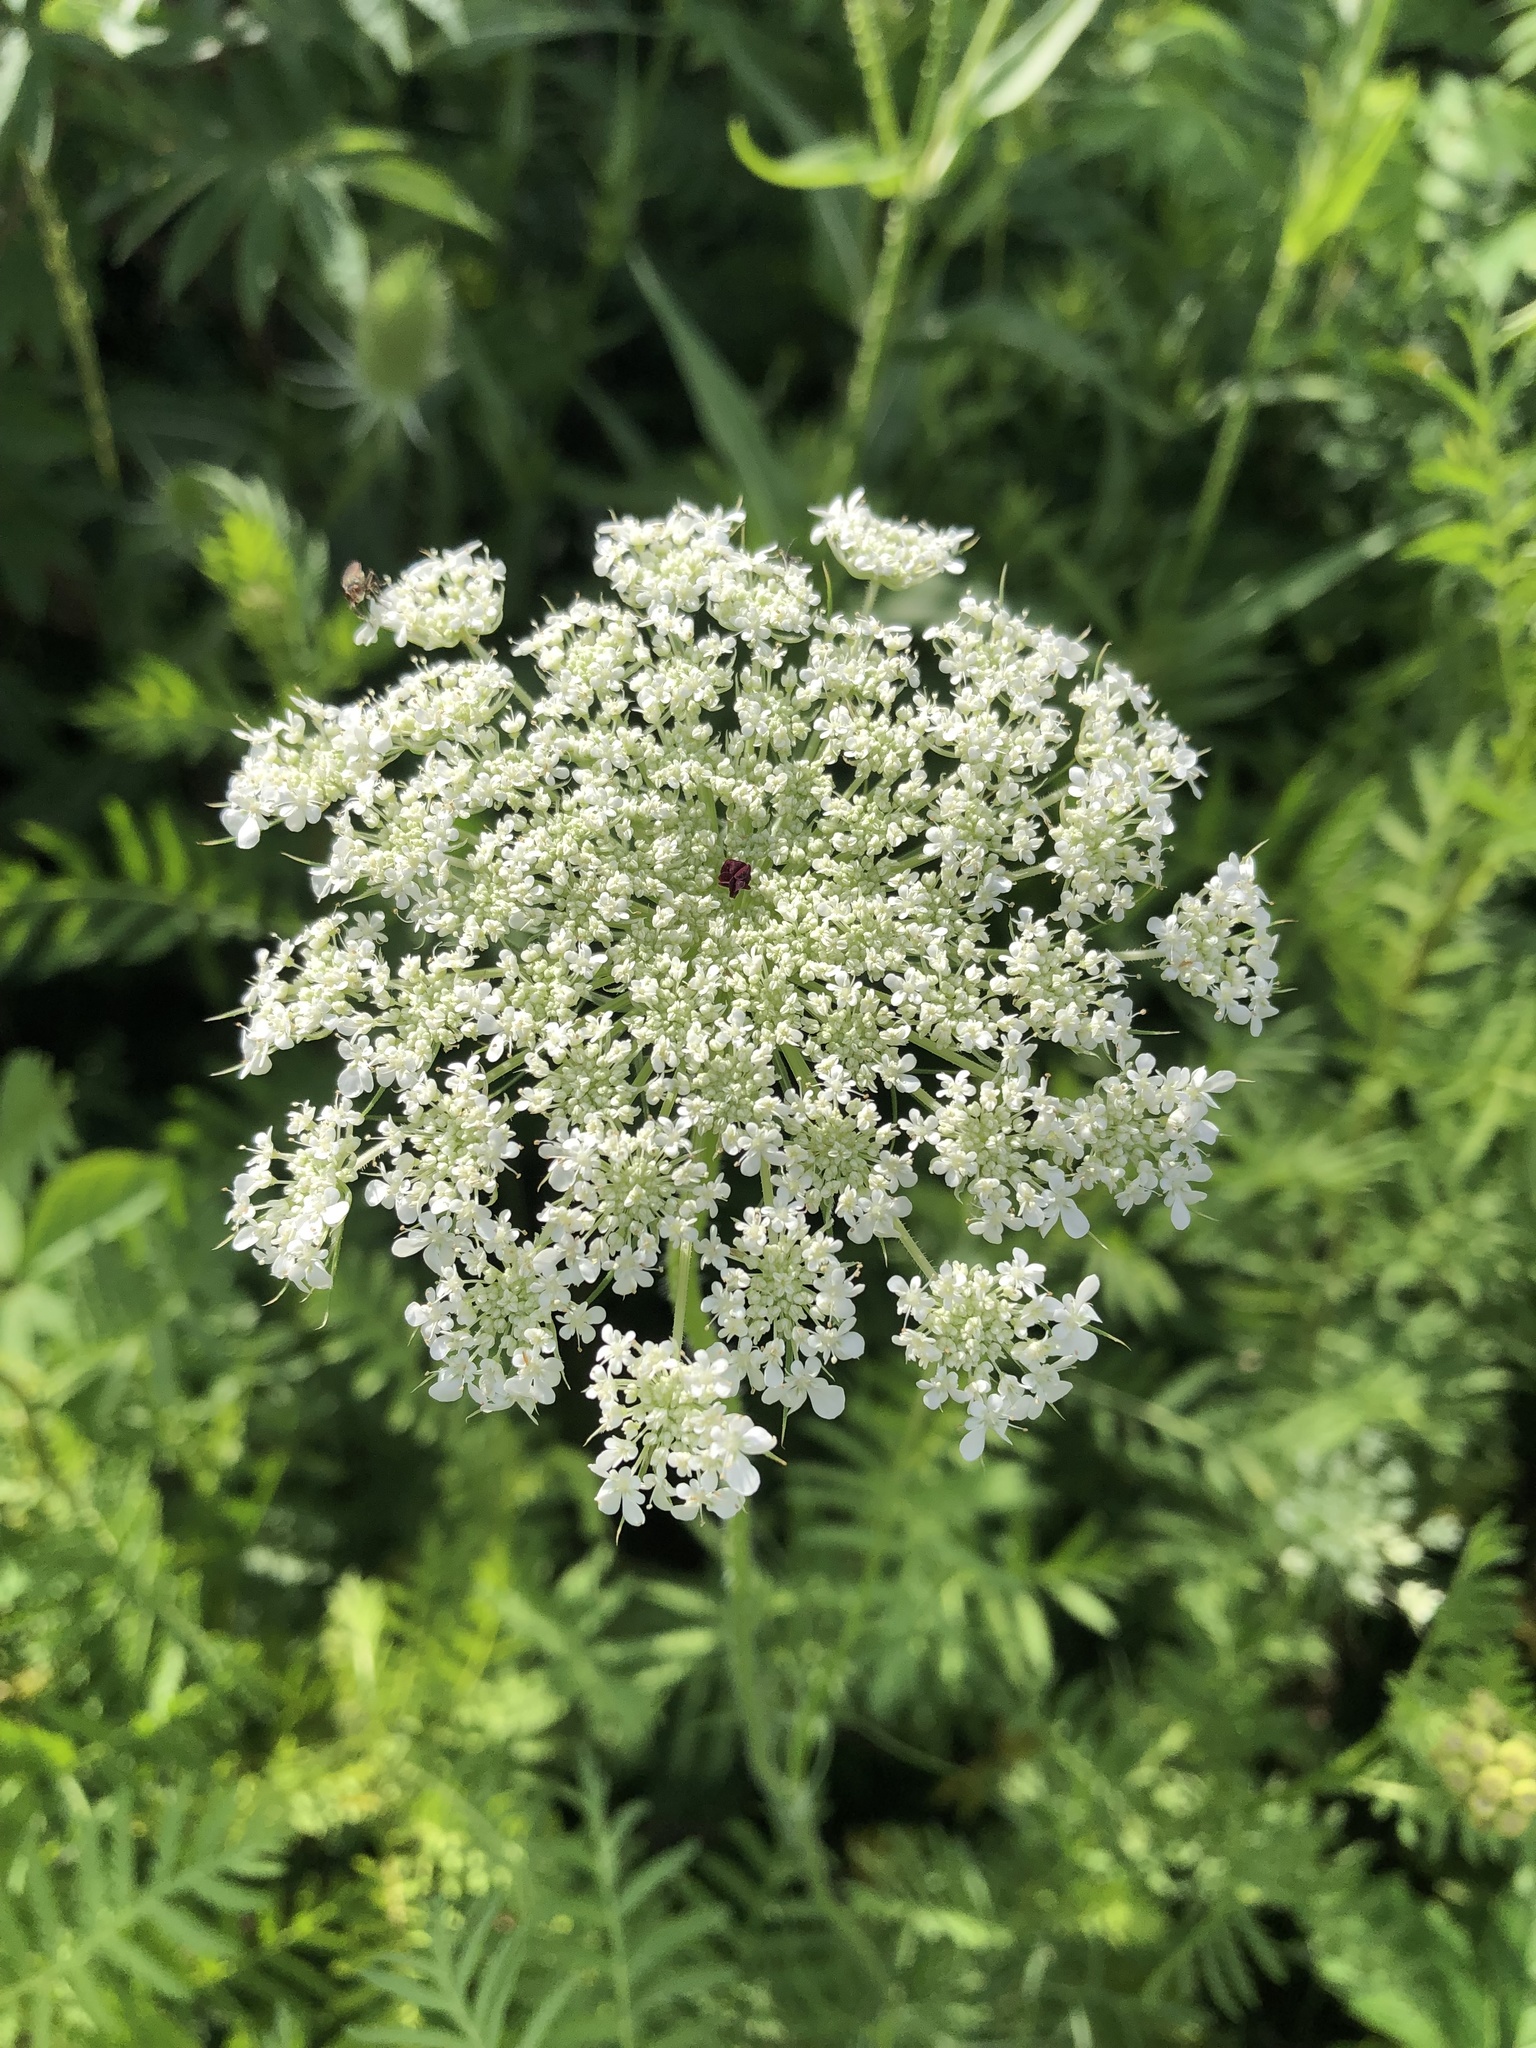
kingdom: Plantae
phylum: Tracheophyta
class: Magnoliopsida
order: Apiales
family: Apiaceae
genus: Daucus
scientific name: Daucus carota
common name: Wild carrot
